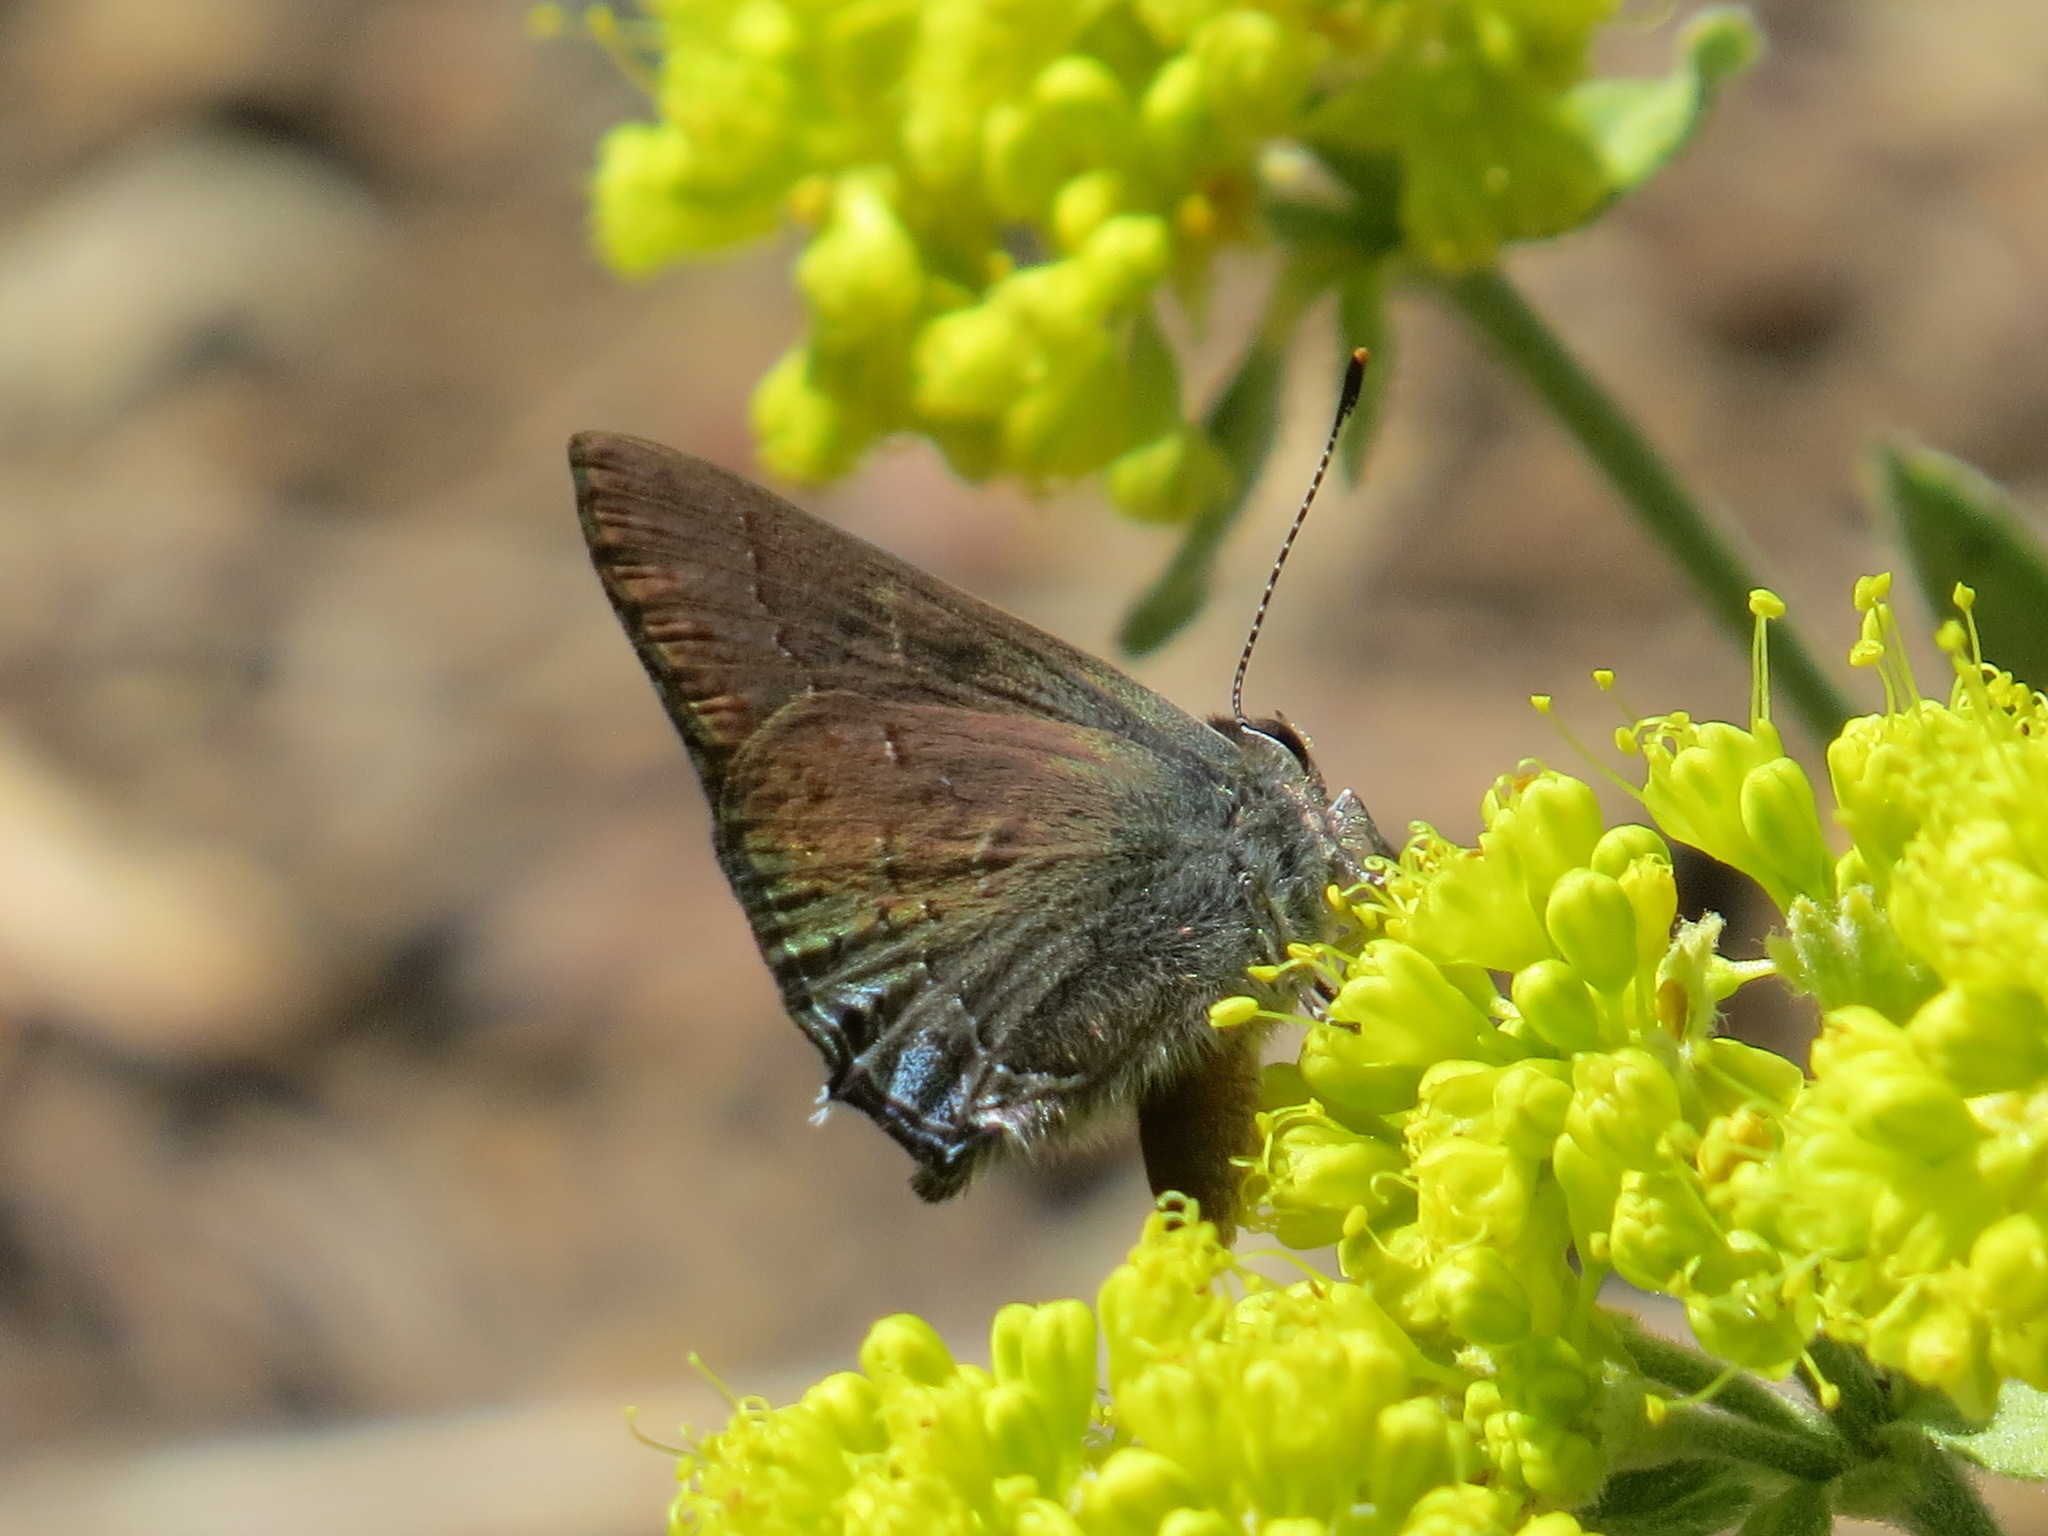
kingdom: Animalia
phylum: Arthropoda
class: Insecta
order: Lepidoptera
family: Lycaenidae
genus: Strymon
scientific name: Strymon saepium
